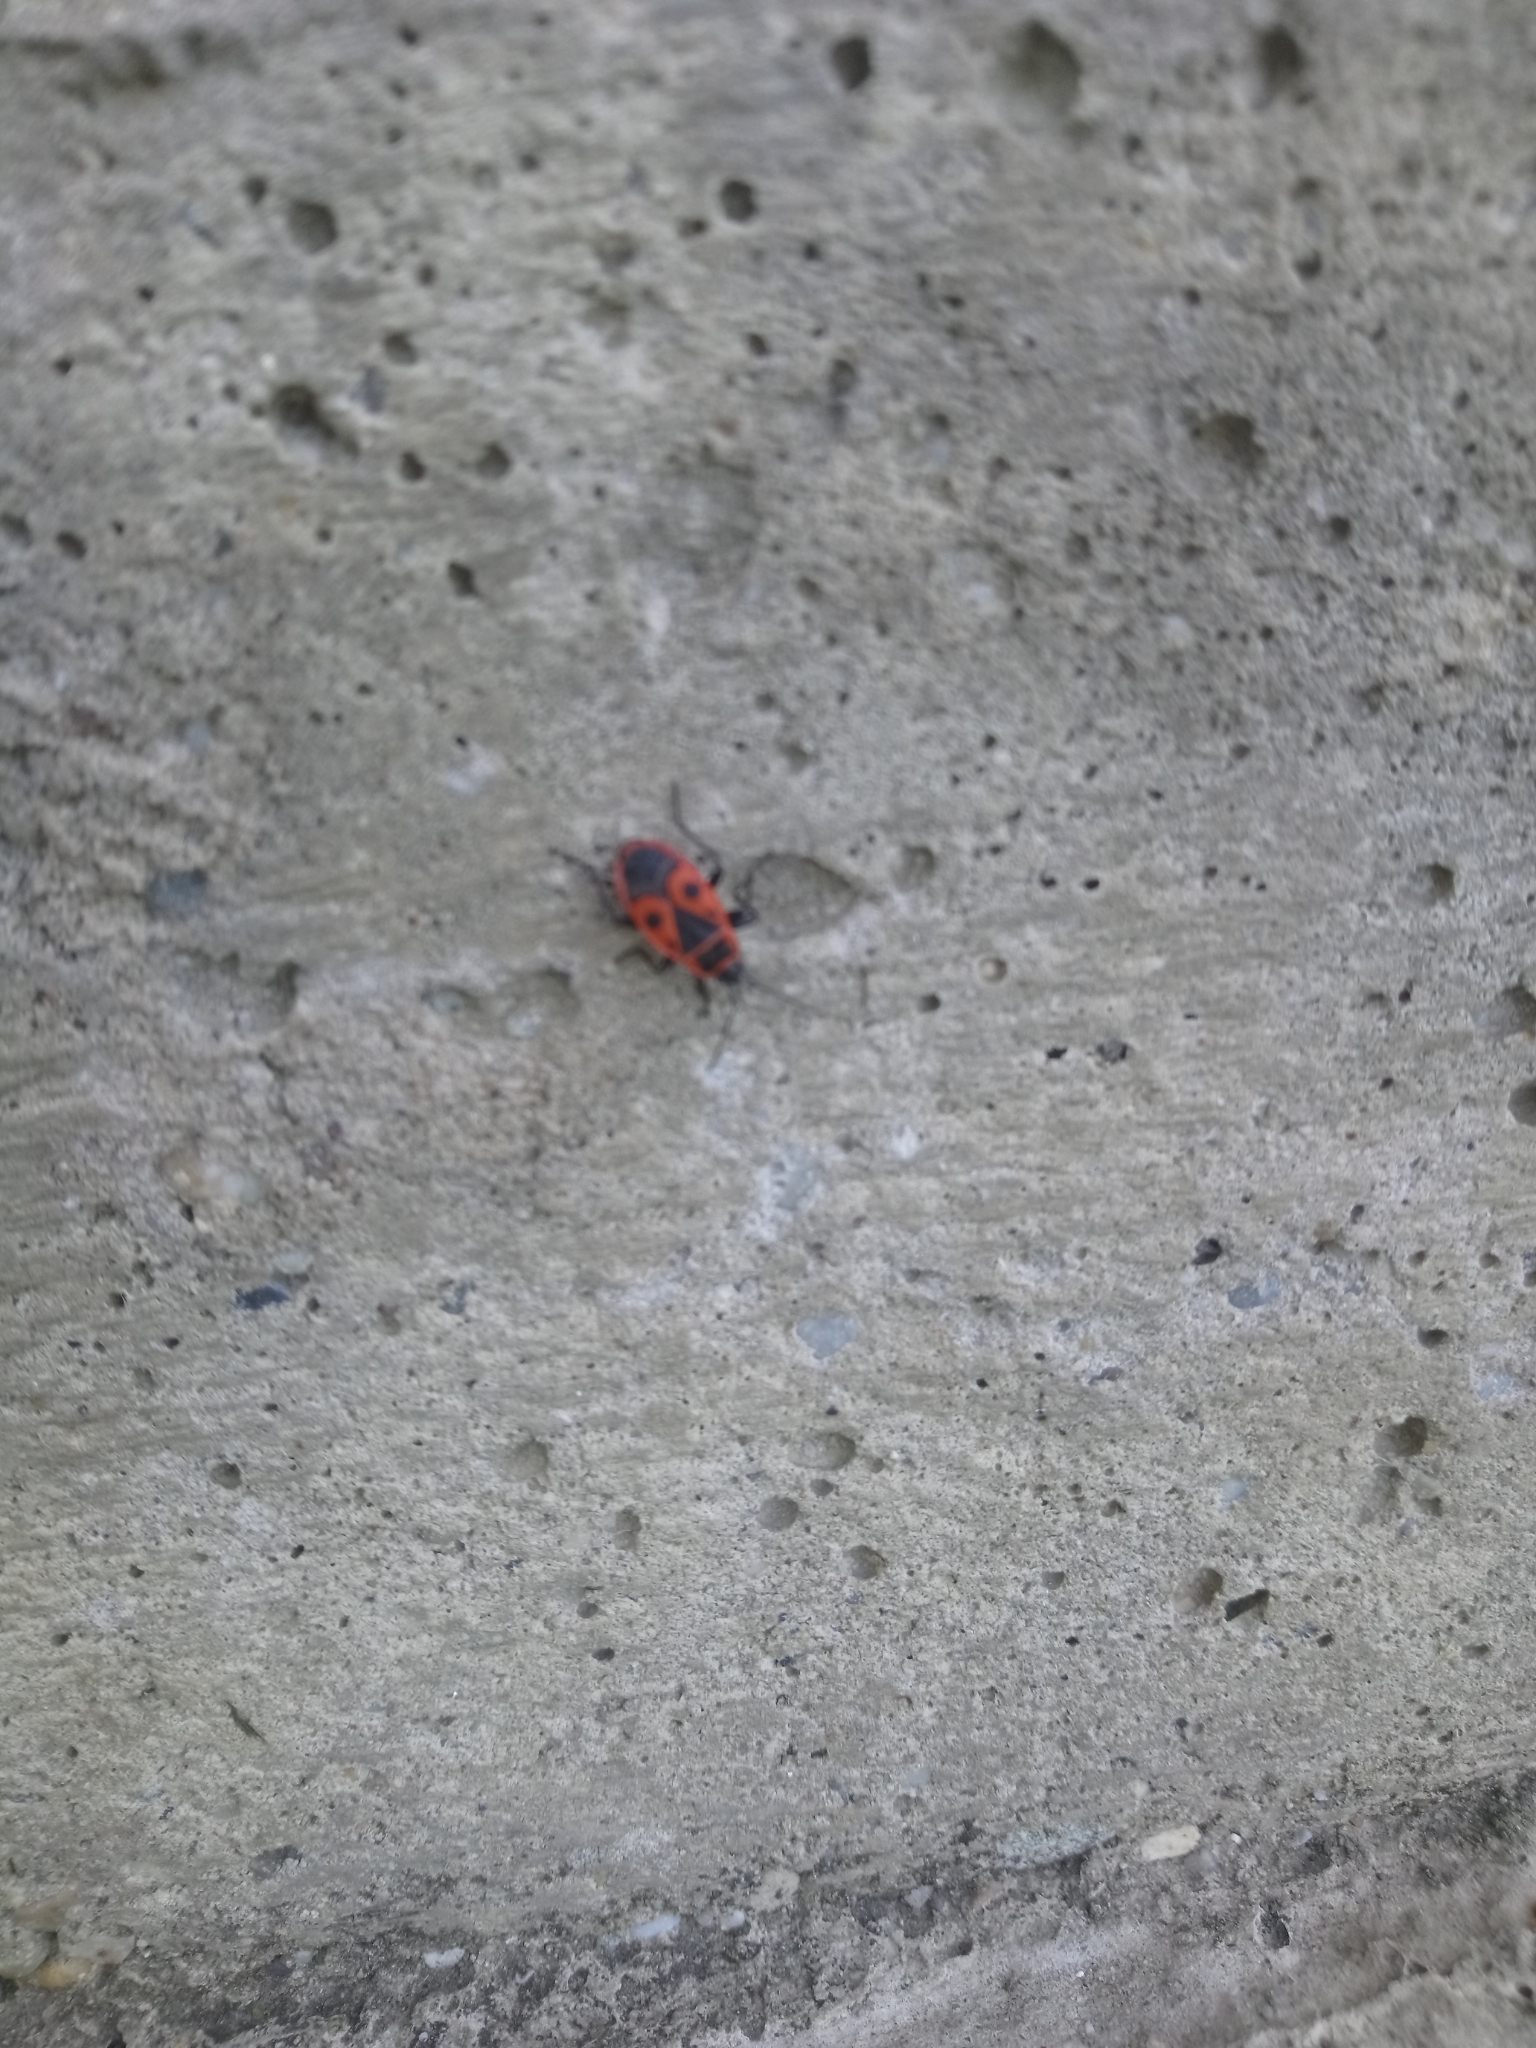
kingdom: Animalia
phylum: Arthropoda
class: Insecta
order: Hemiptera
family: Pyrrhocoridae
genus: Pyrrhocoris
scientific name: Pyrrhocoris apterus
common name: Firebug
